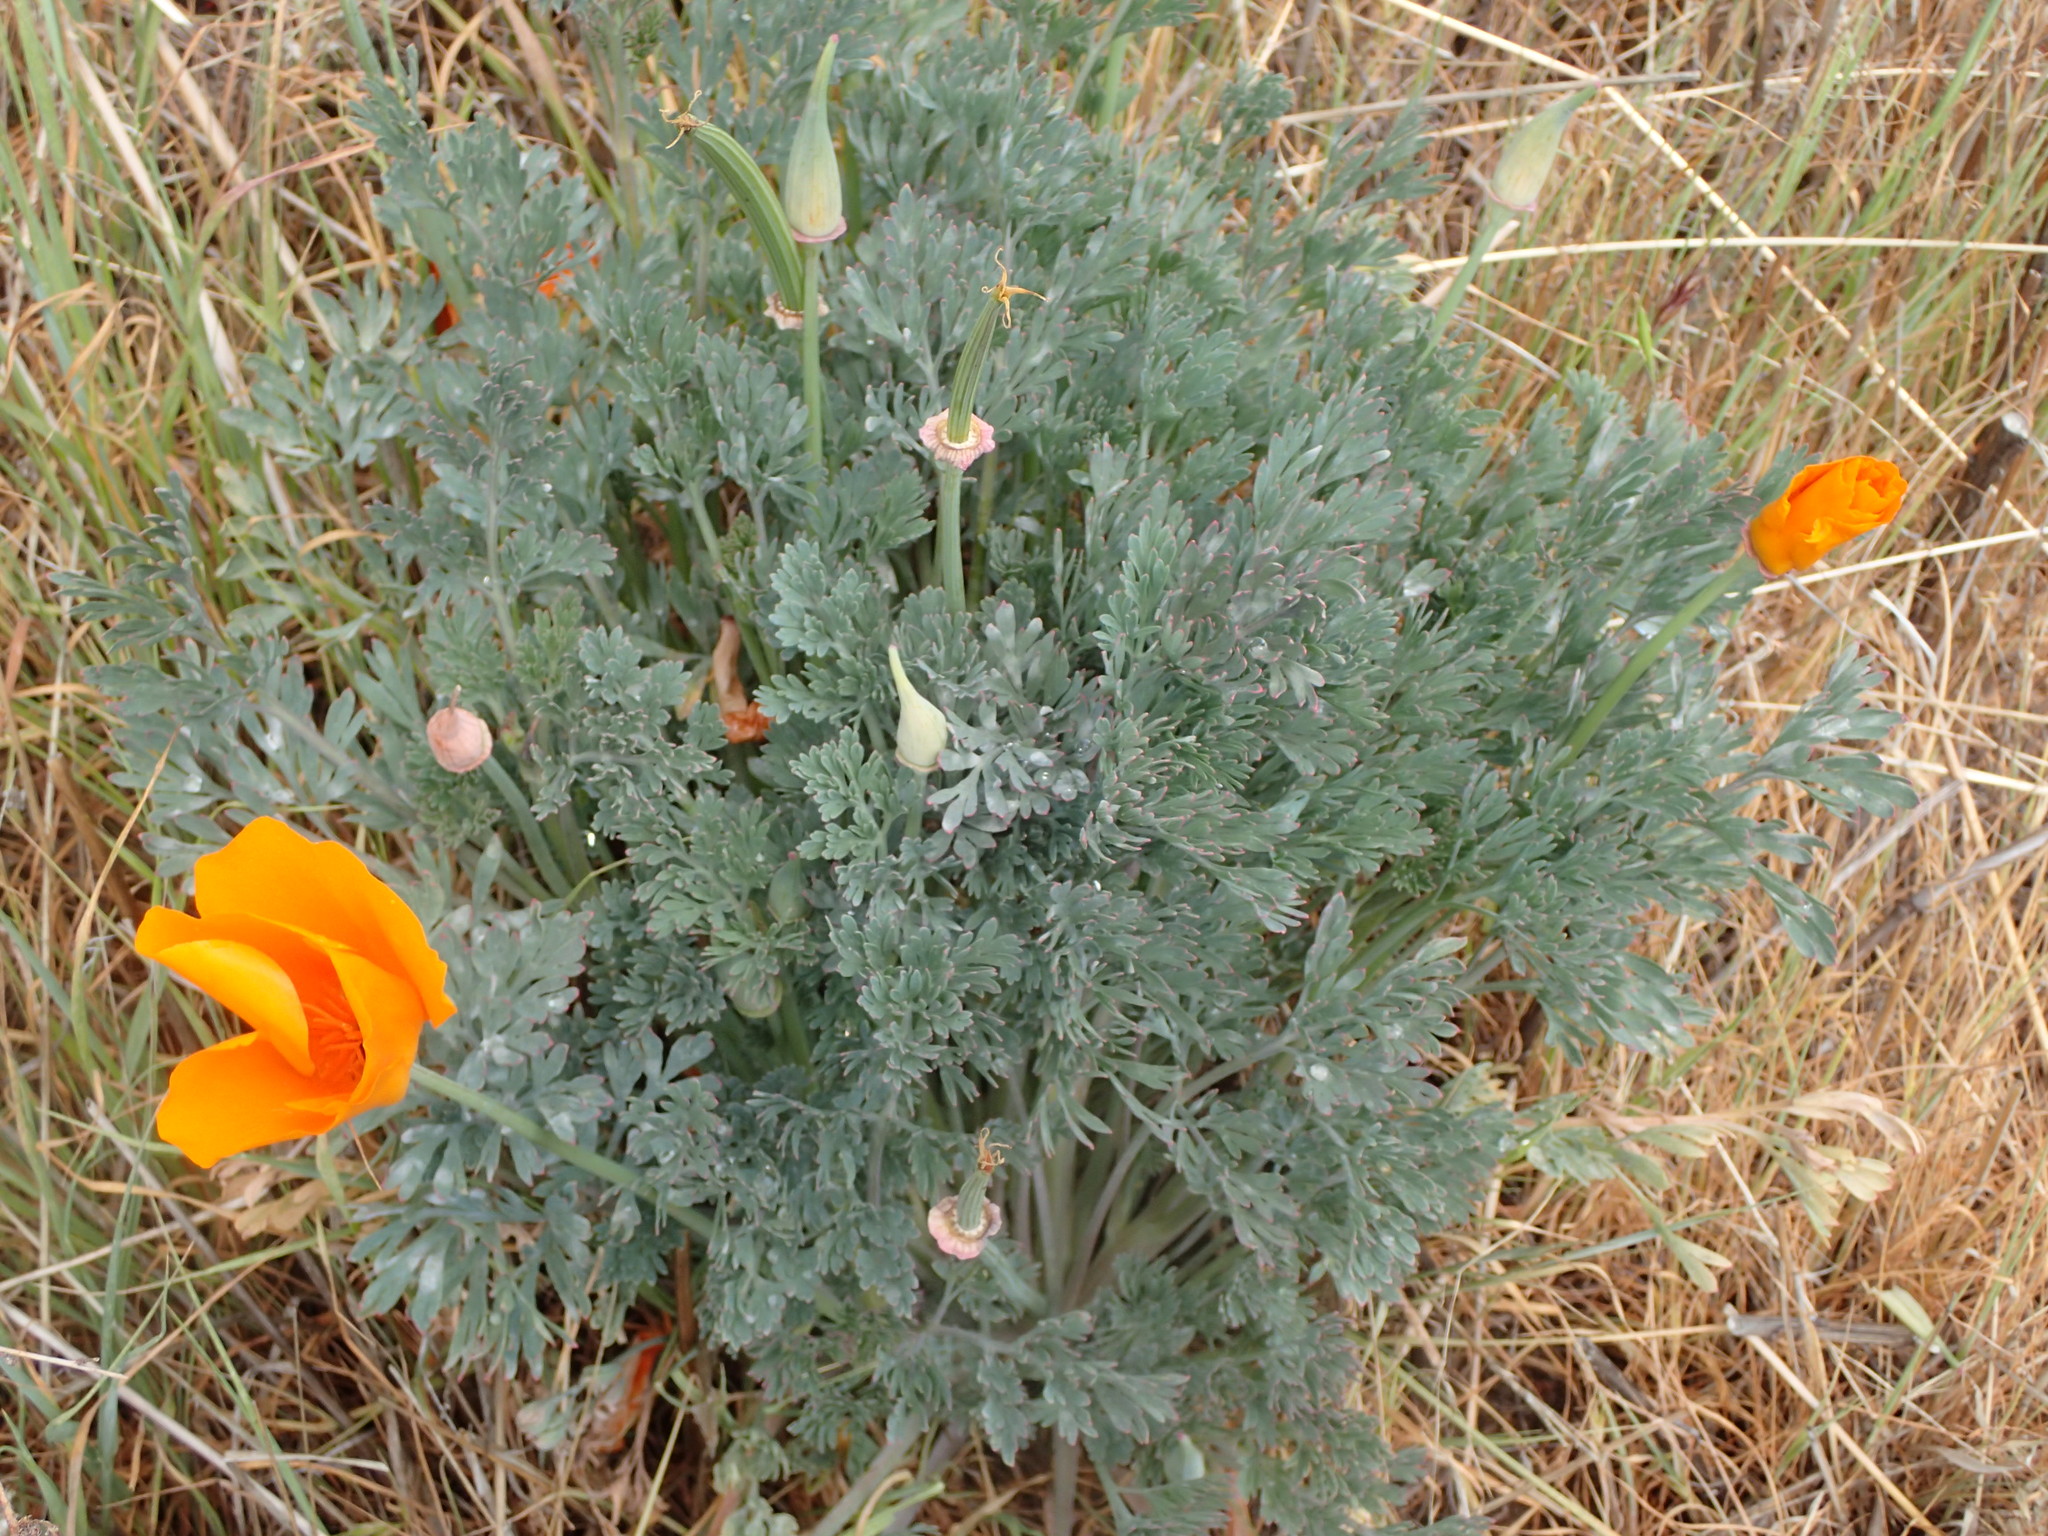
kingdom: Plantae
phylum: Tracheophyta
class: Magnoliopsida
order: Ranunculales
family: Papaveraceae
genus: Eschscholzia
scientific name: Eschscholzia californica
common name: California poppy
